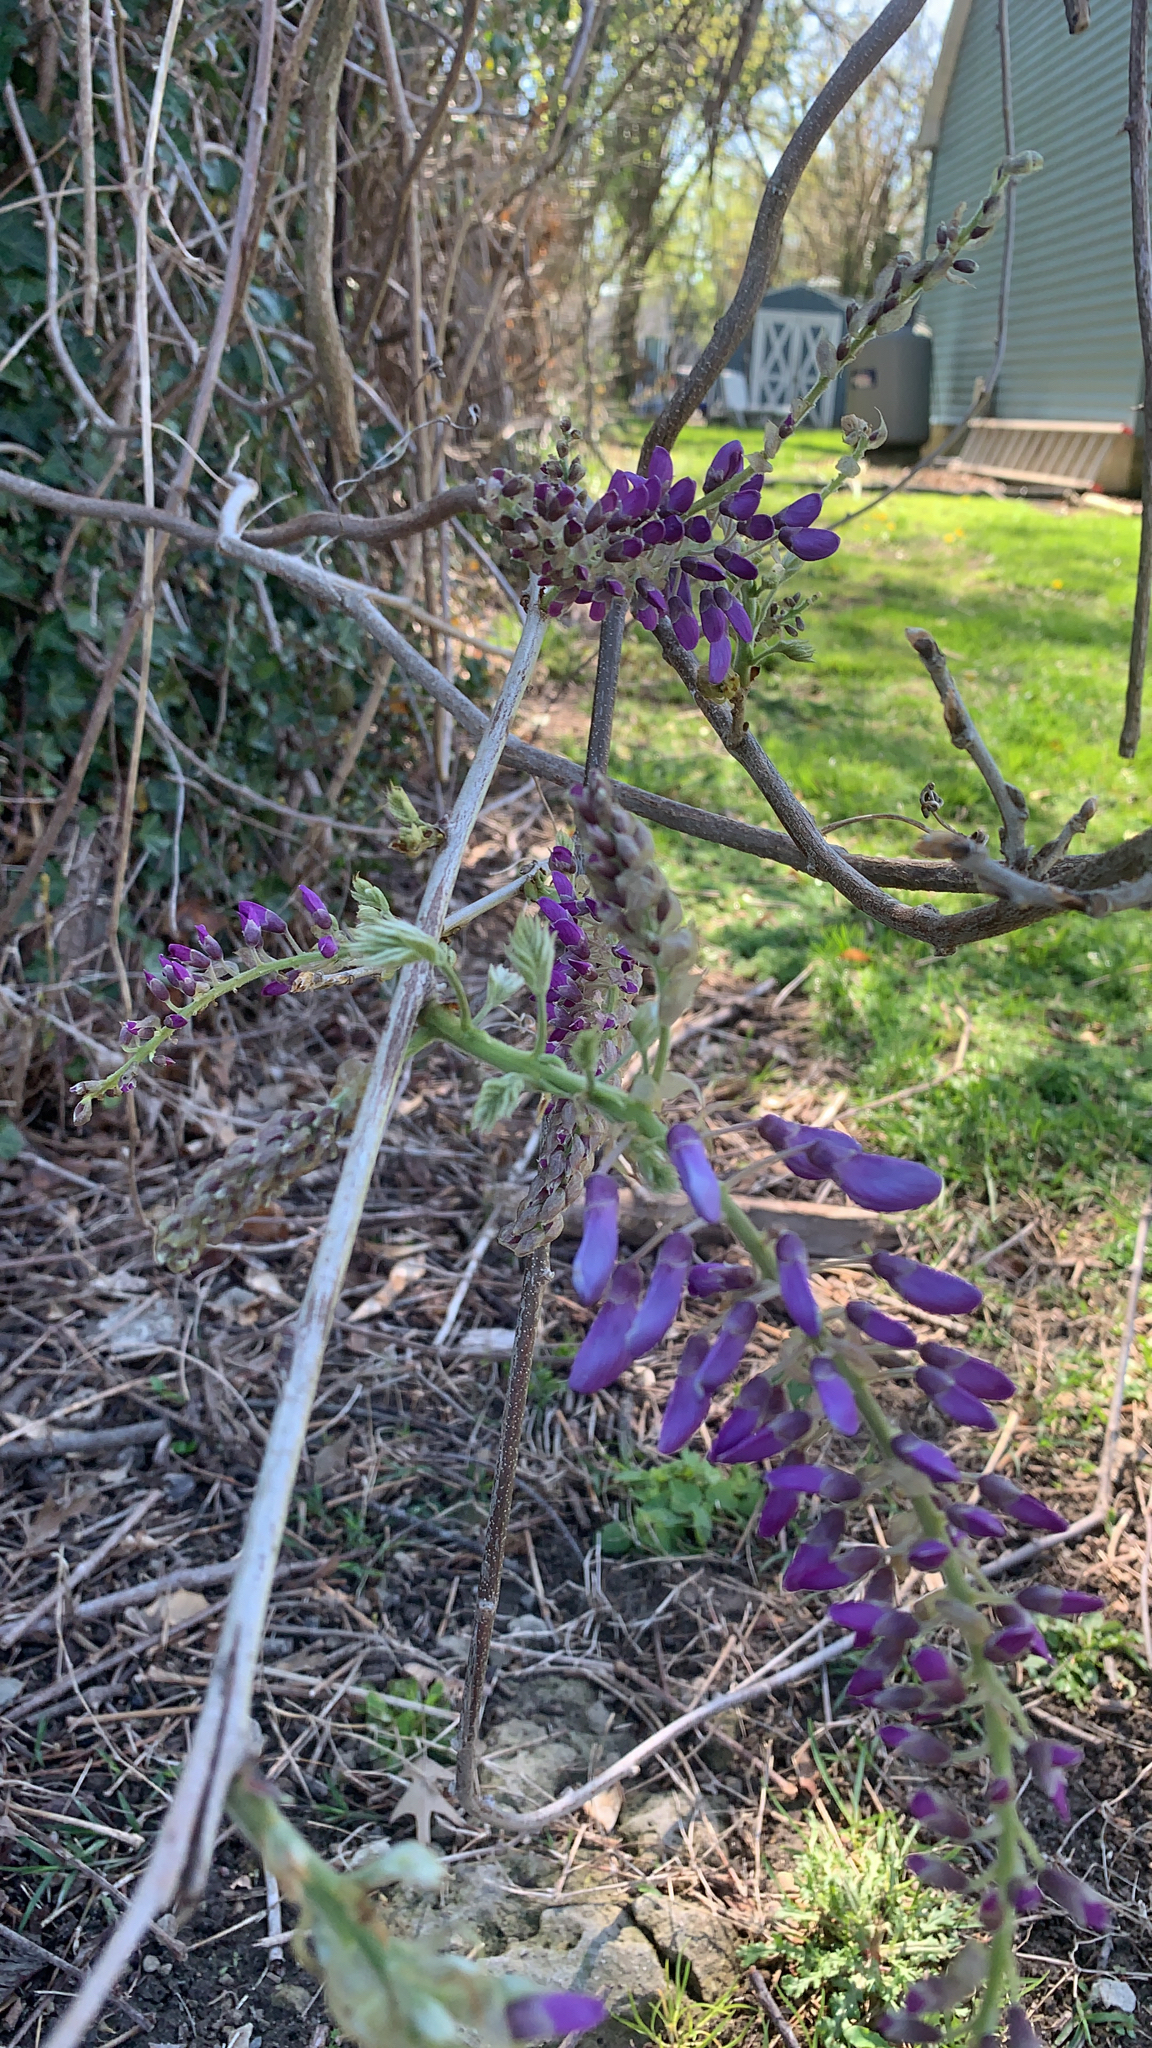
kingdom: Plantae
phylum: Tracheophyta
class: Magnoliopsida
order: Fabales
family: Fabaceae
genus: Wisteria
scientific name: Wisteria sinensis
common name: Chinese wisteria
